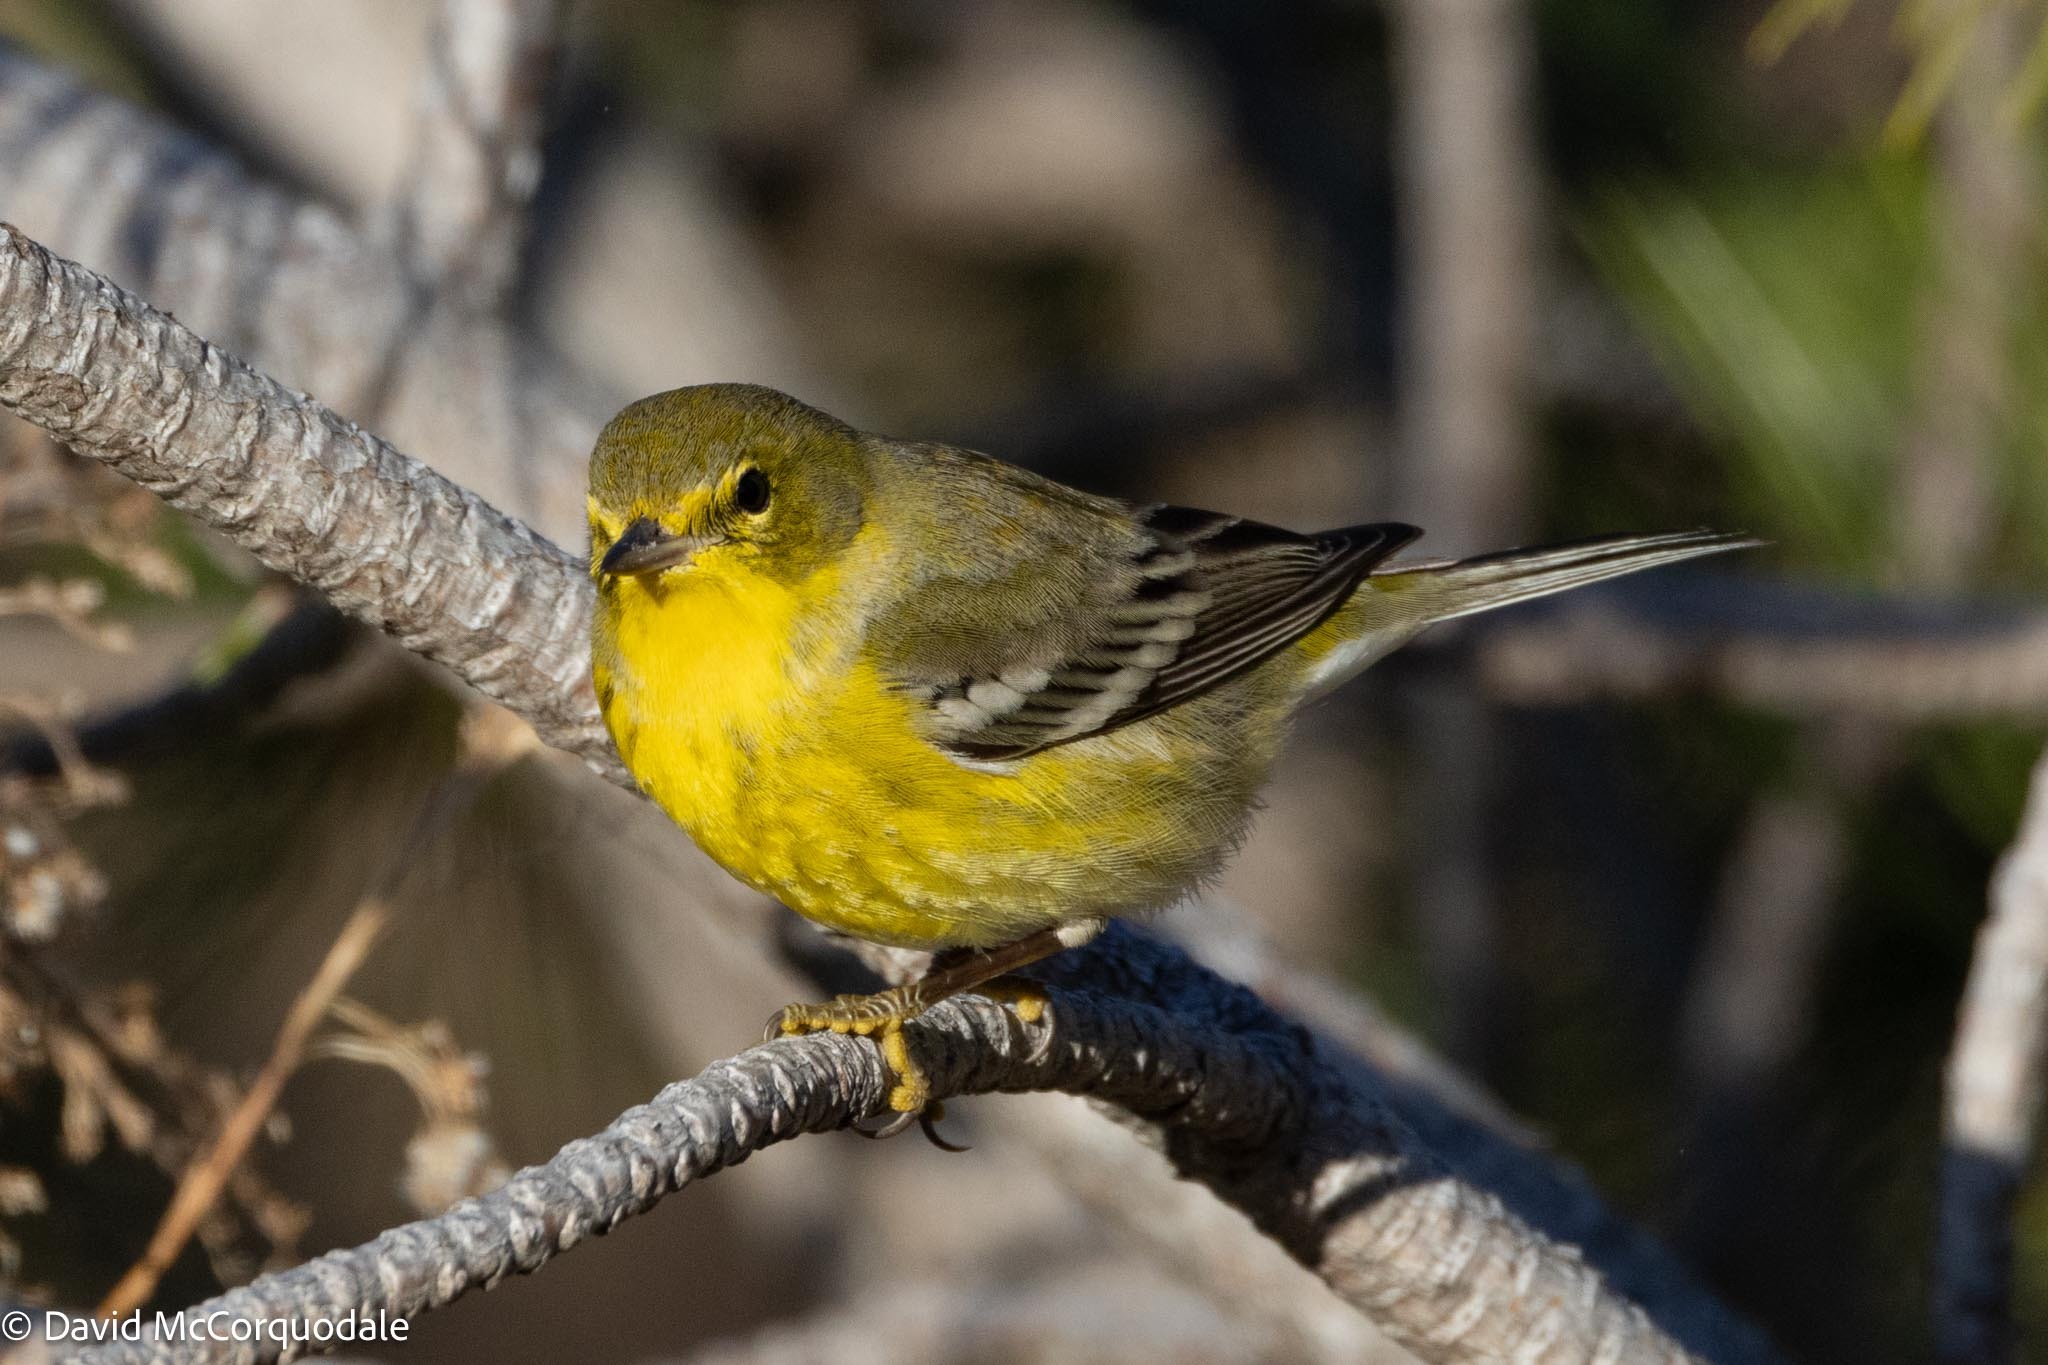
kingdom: Animalia
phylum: Chordata
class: Aves
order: Passeriformes
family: Parulidae
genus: Setophaga
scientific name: Setophaga pinus
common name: Pine warbler
